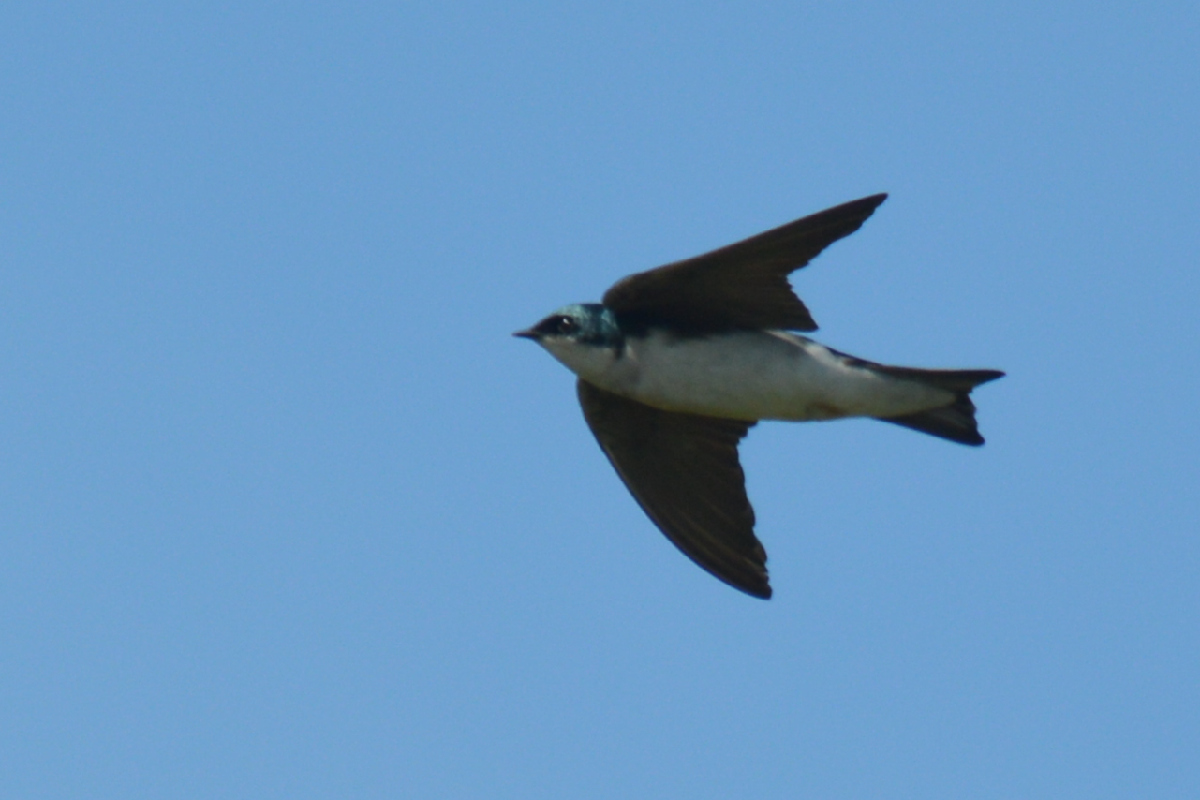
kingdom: Animalia
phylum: Chordata
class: Aves
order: Passeriformes
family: Hirundinidae
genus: Tachycineta
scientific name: Tachycineta bicolor
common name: Tree swallow
